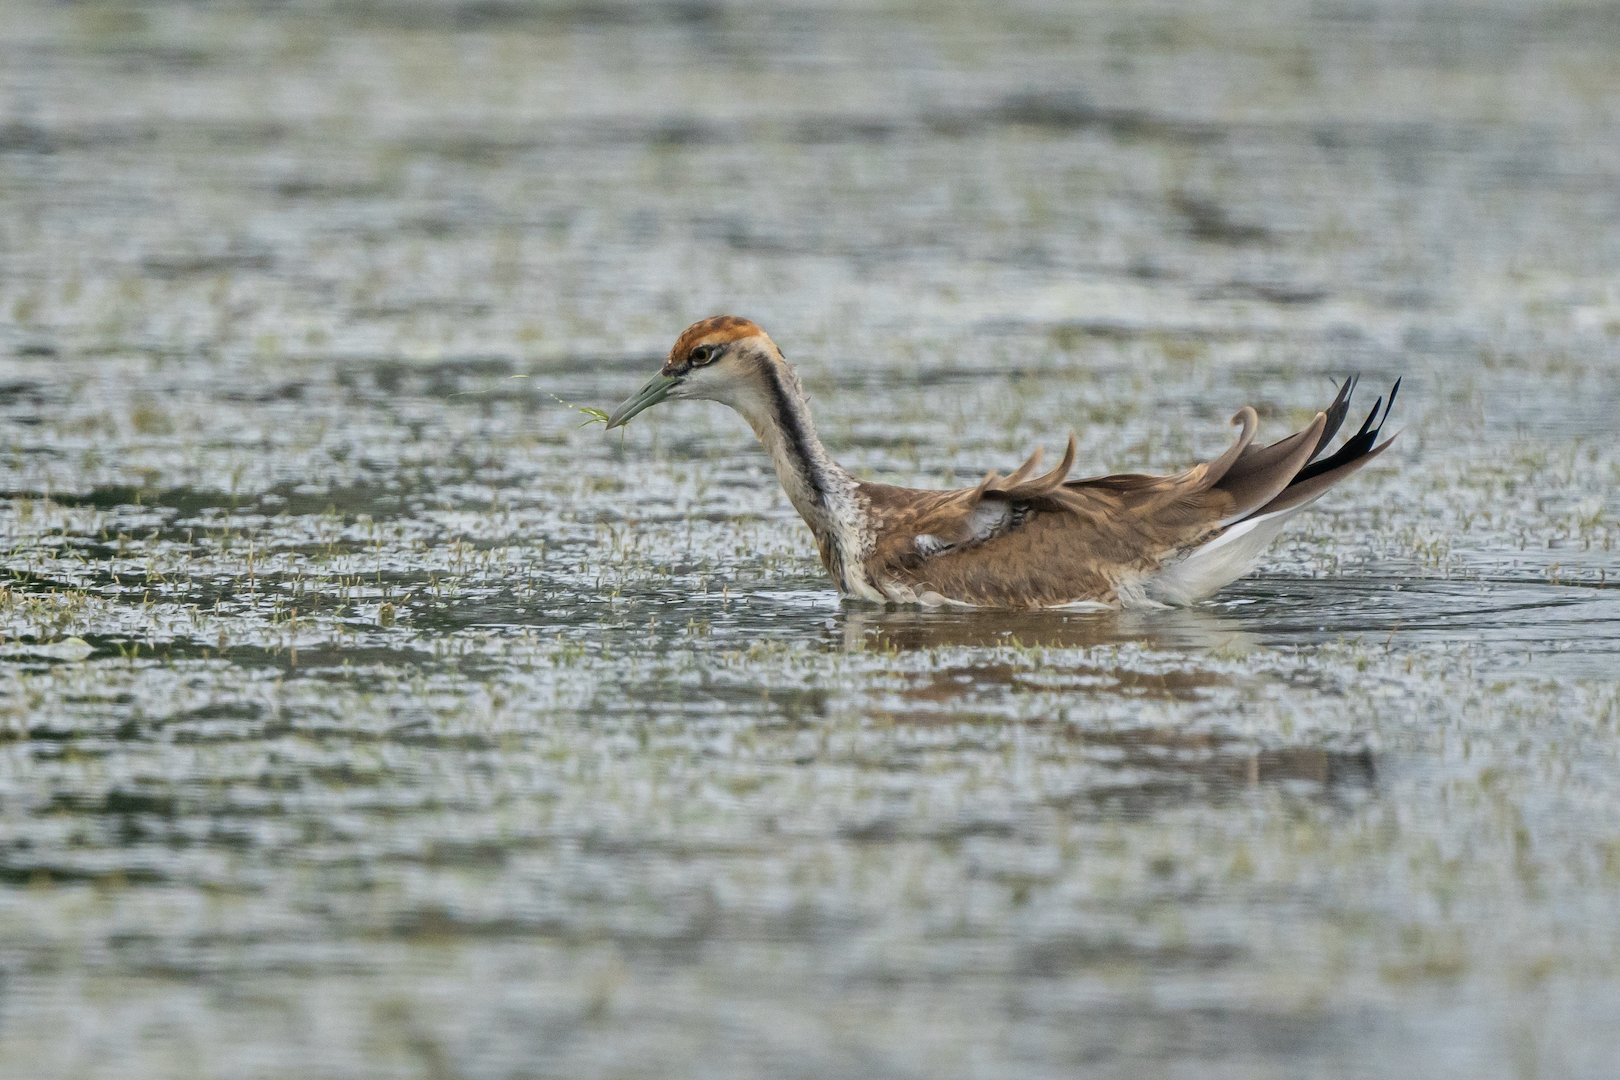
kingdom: Animalia
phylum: Chordata
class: Aves
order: Charadriiformes
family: Jacanidae
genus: Hydrophasianus
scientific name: Hydrophasianus chirurgus
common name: Pheasant-tailed jacana
